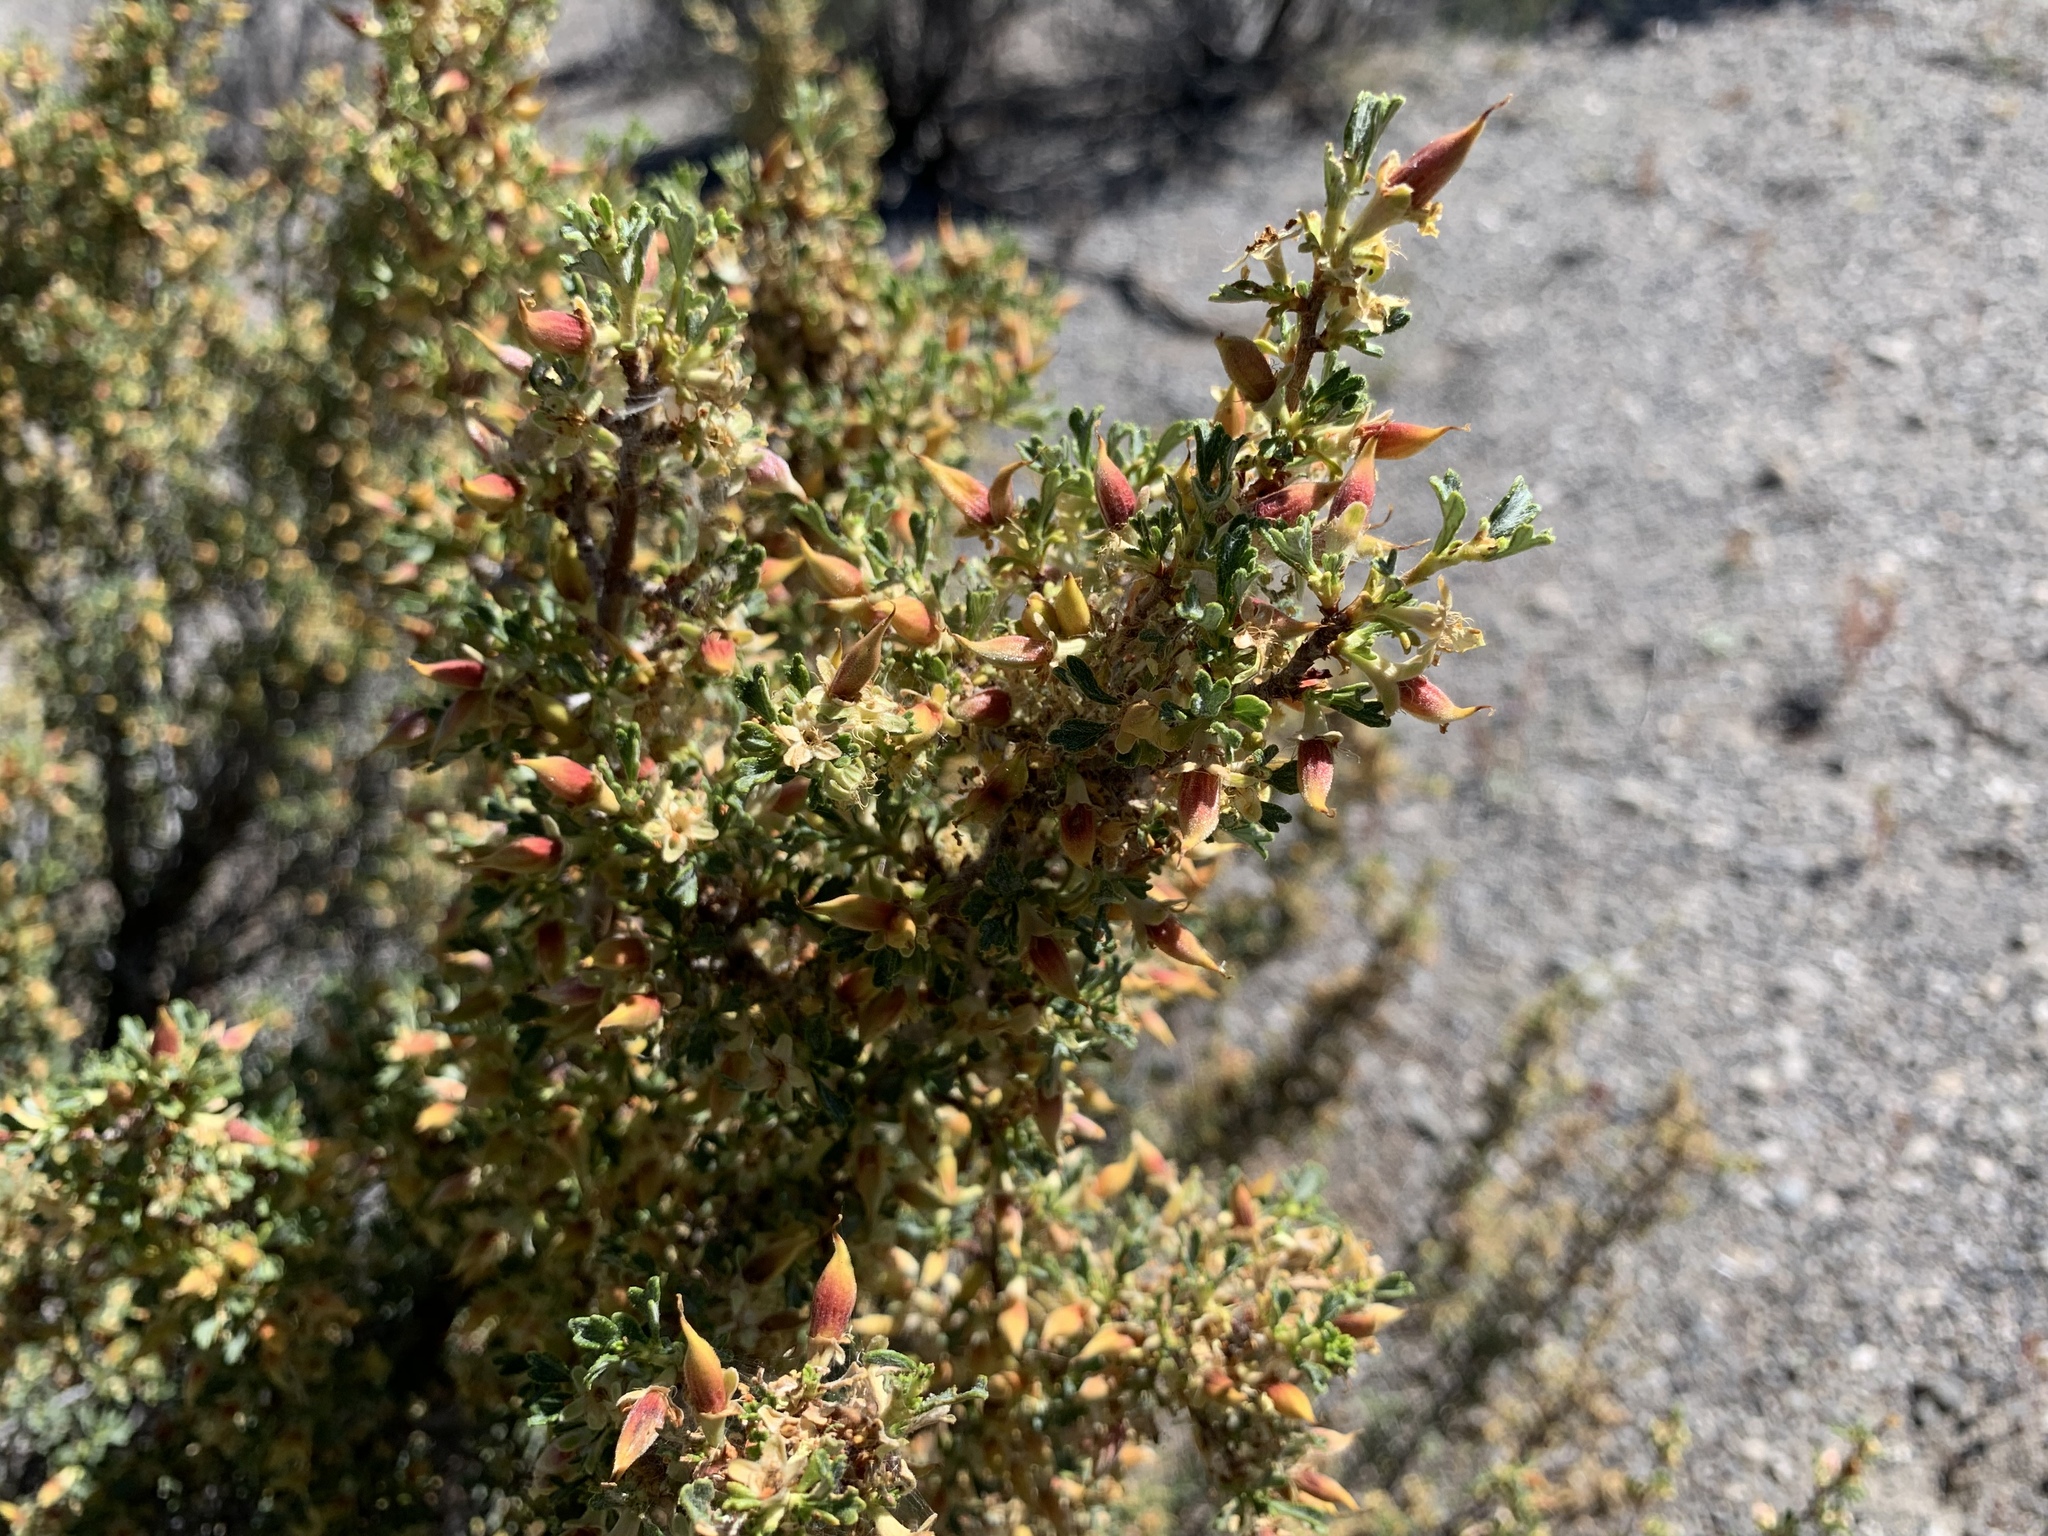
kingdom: Plantae
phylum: Tracheophyta
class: Magnoliopsida
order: Rosales
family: Rosaceae
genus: Purshia
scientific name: Purshia tridentata
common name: Antelope bitterbrush
